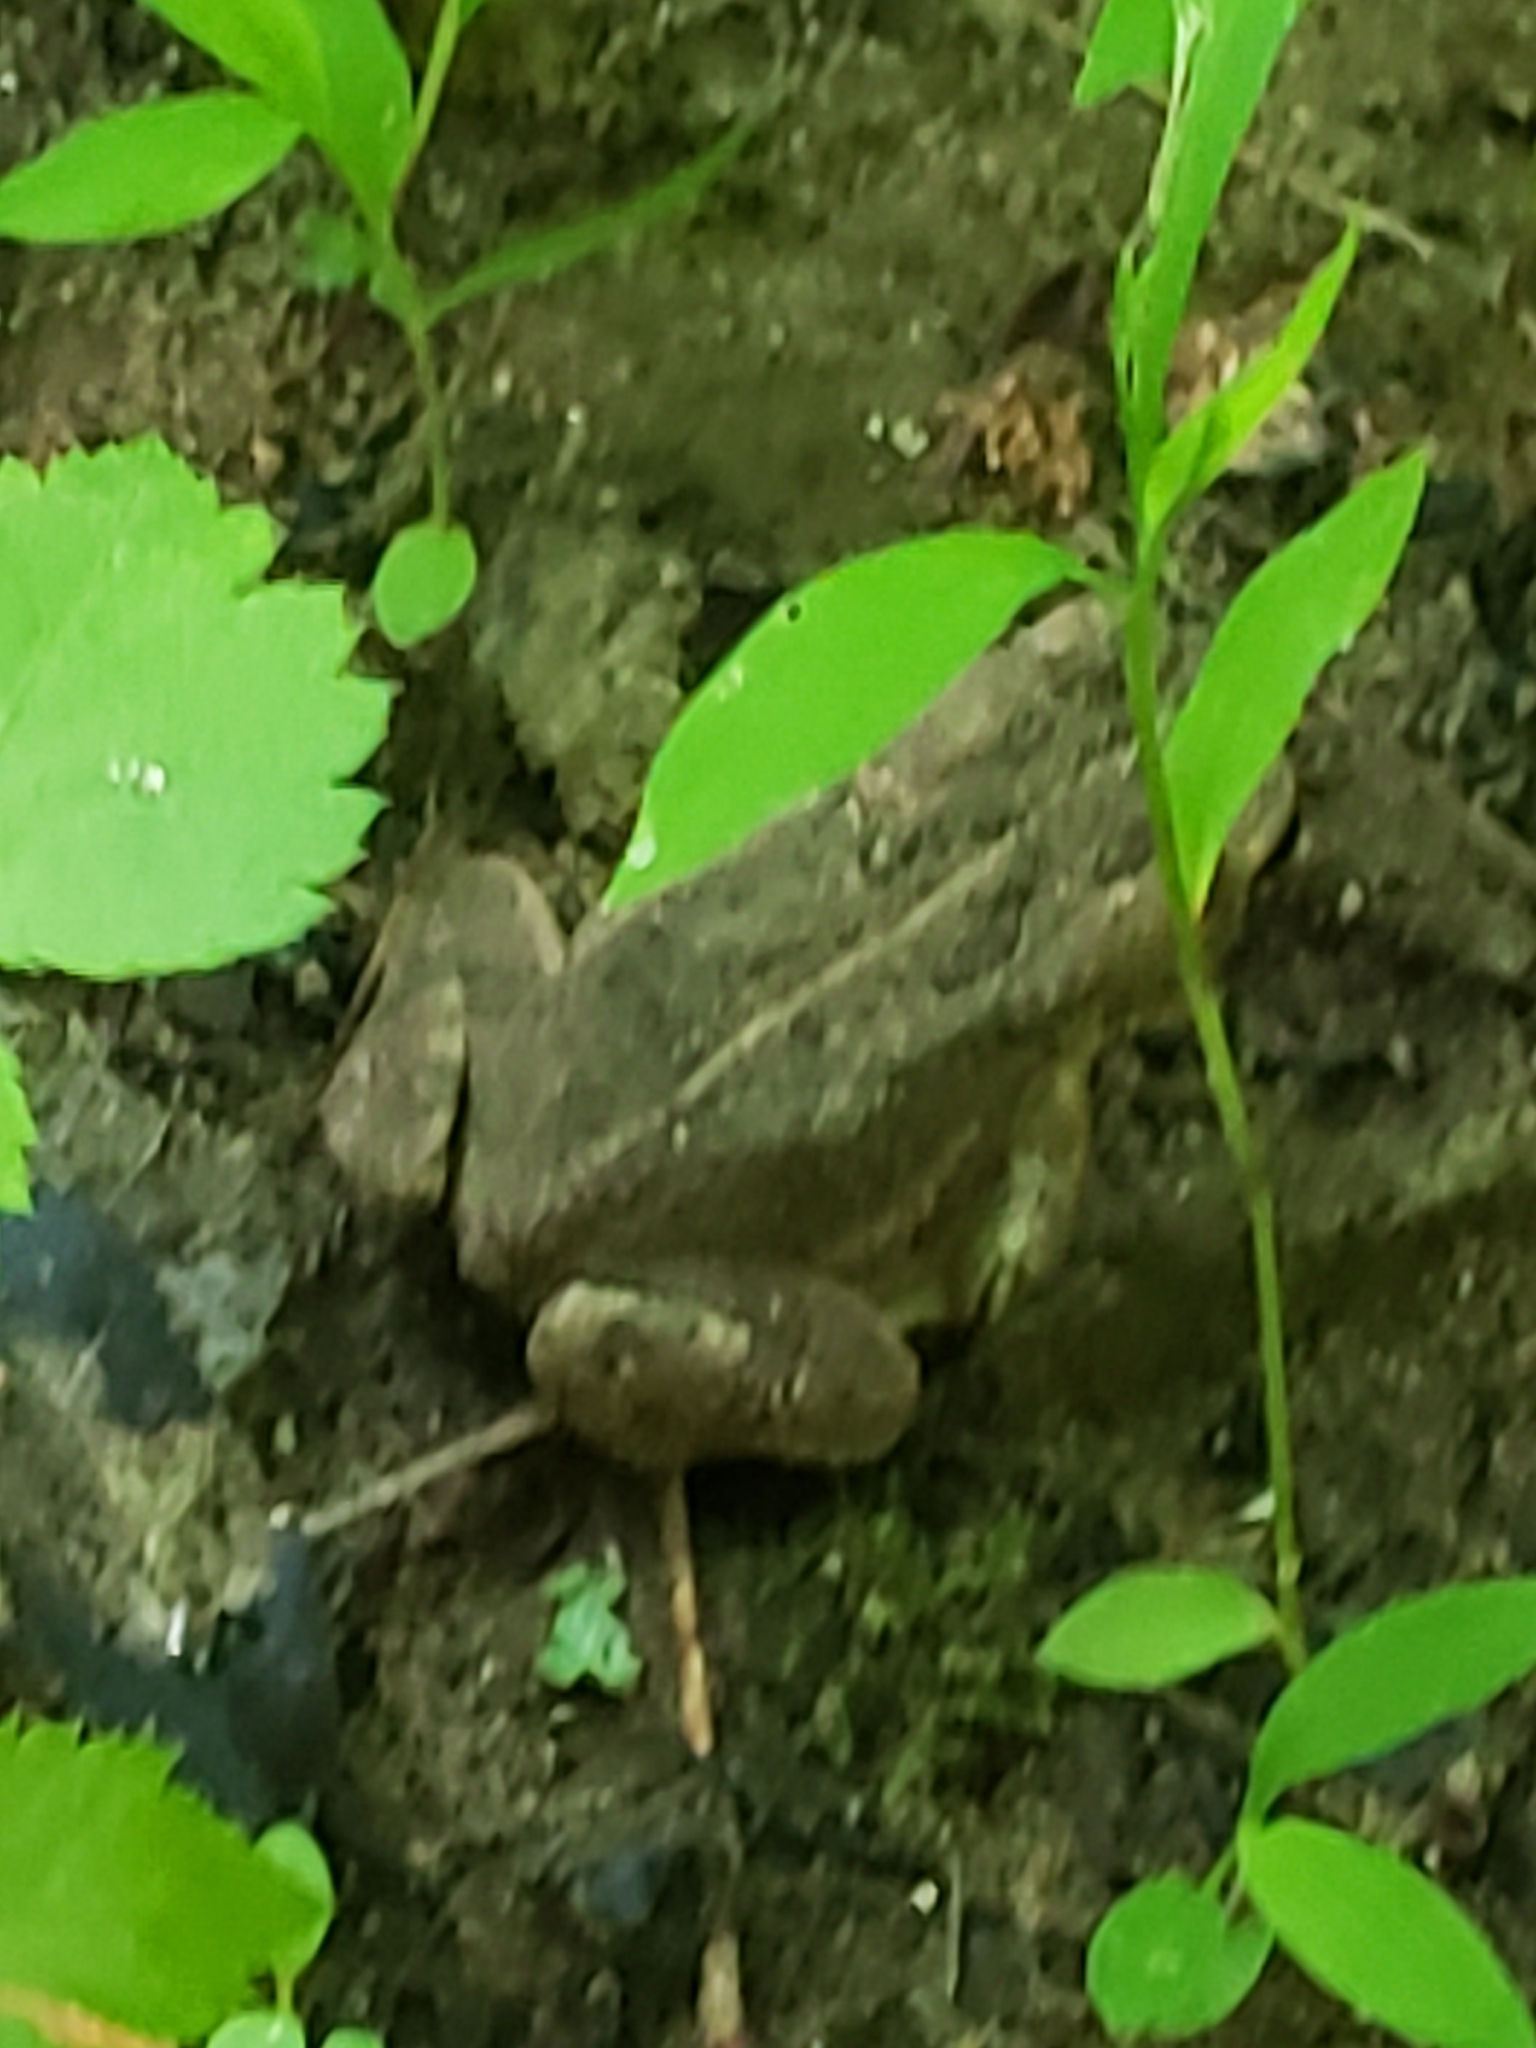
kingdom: Animalia
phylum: Chordata
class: Amphibia
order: Anura
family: Bufonidae
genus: Anaxyrus
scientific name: Anaxyrus fowleri
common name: Fowler's toad
